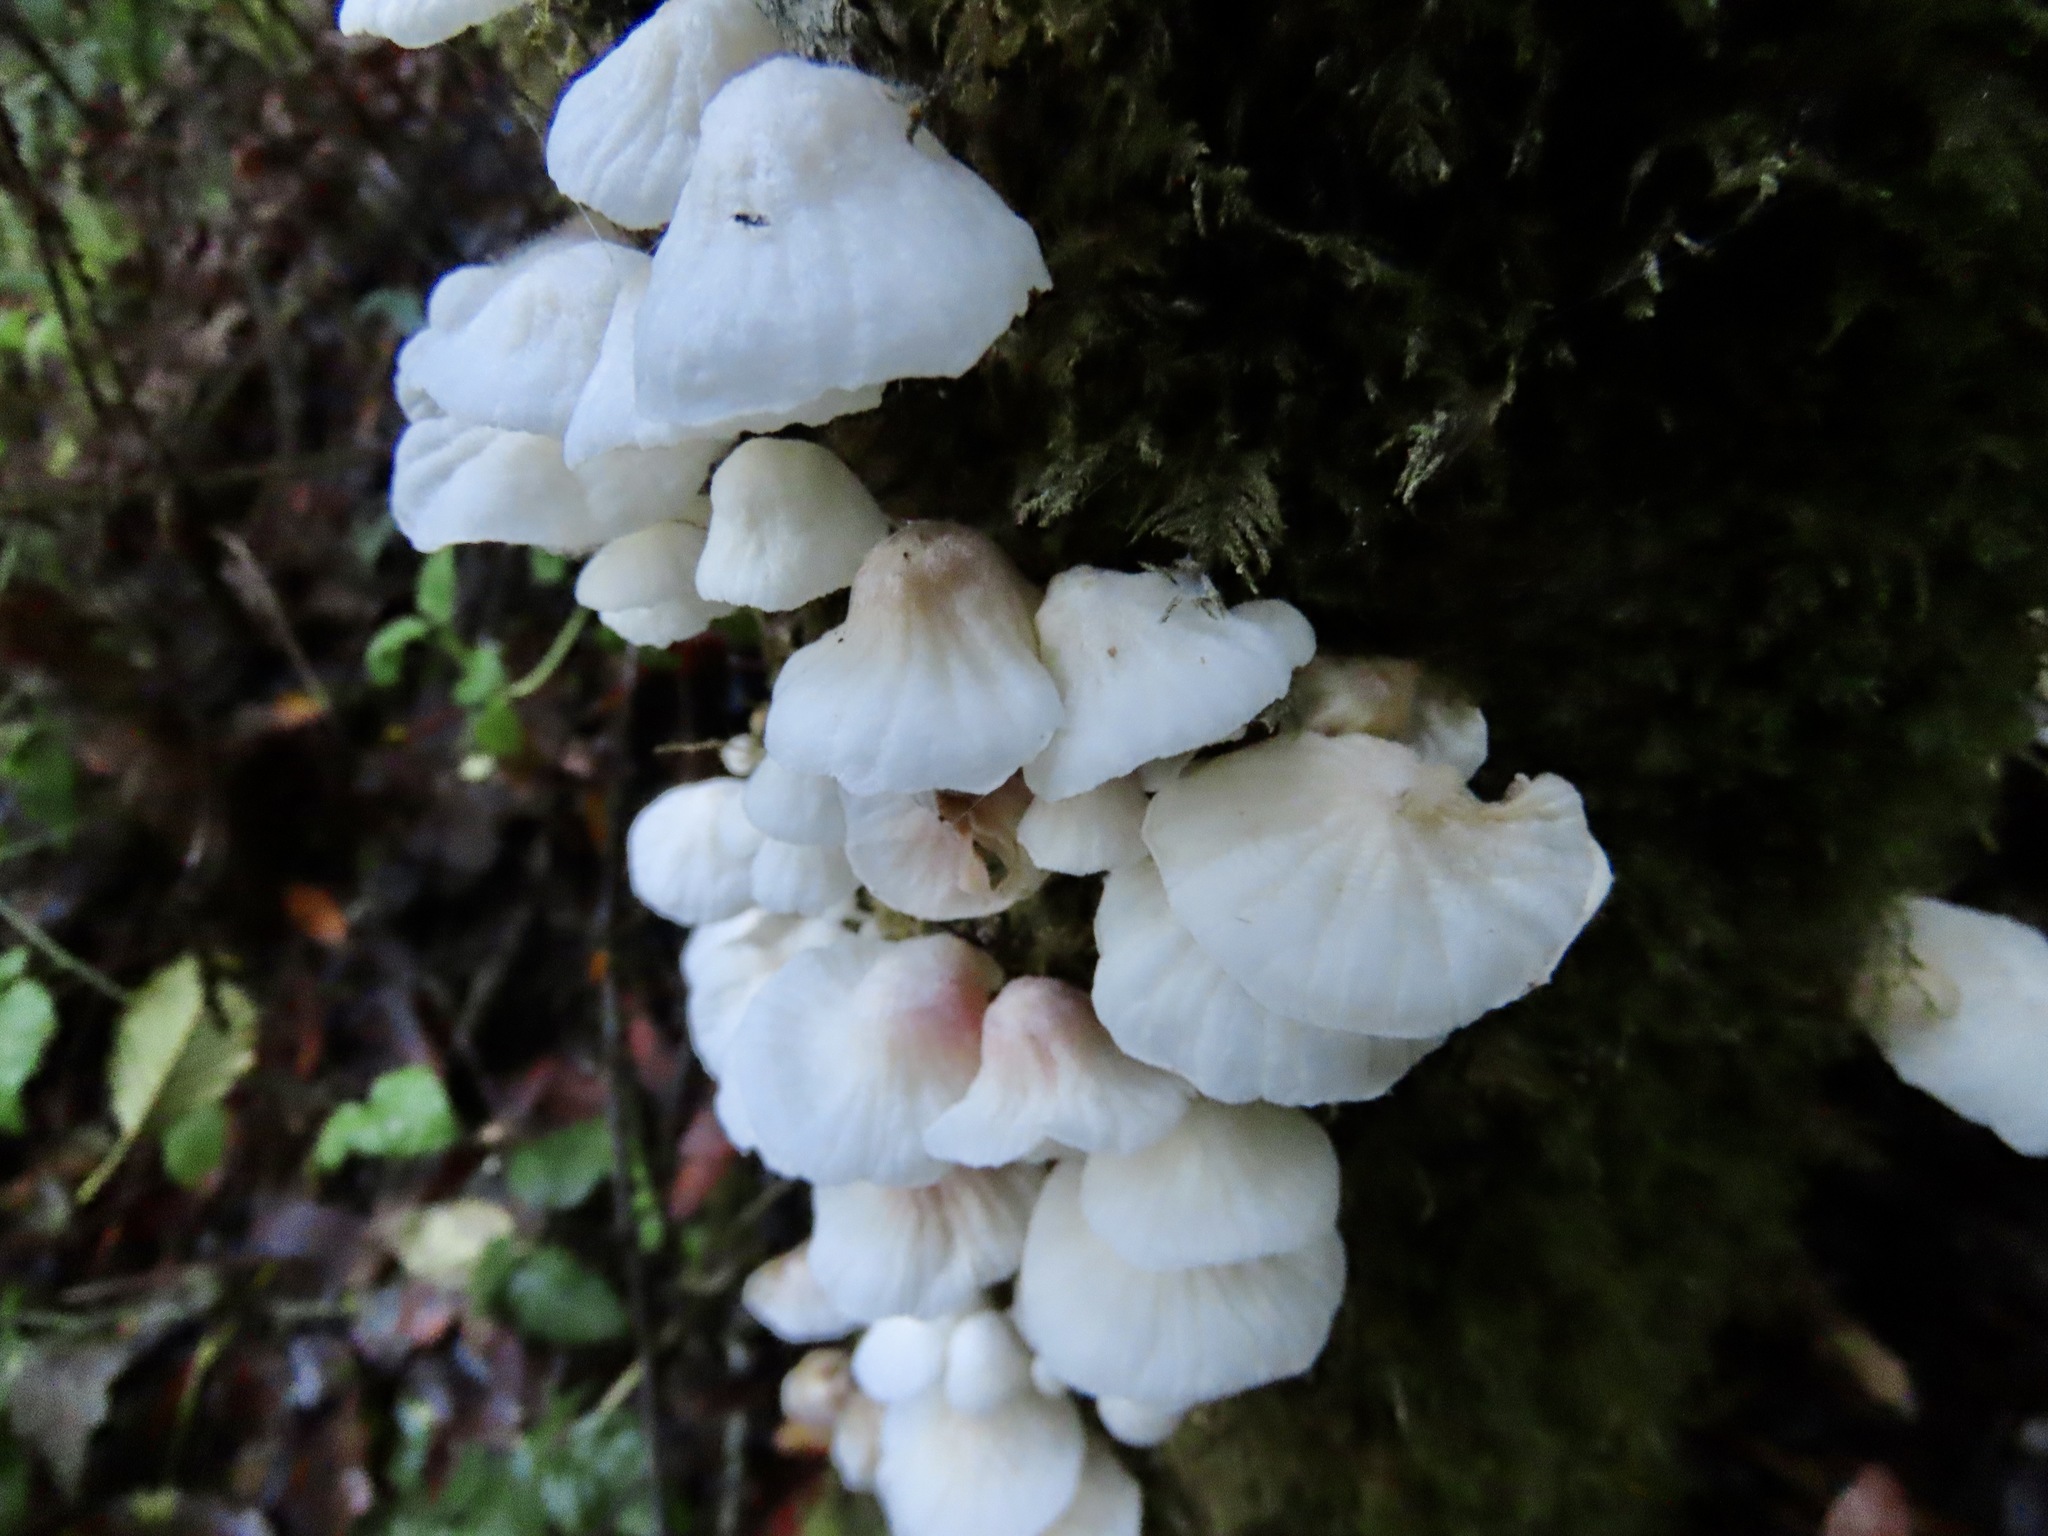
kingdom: Fungi
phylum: Basidiomycota
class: Agaricomycetes
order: Agaricales
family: Omphalotaceae
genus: Marasmiellus
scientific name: Marasmiellus candidus
